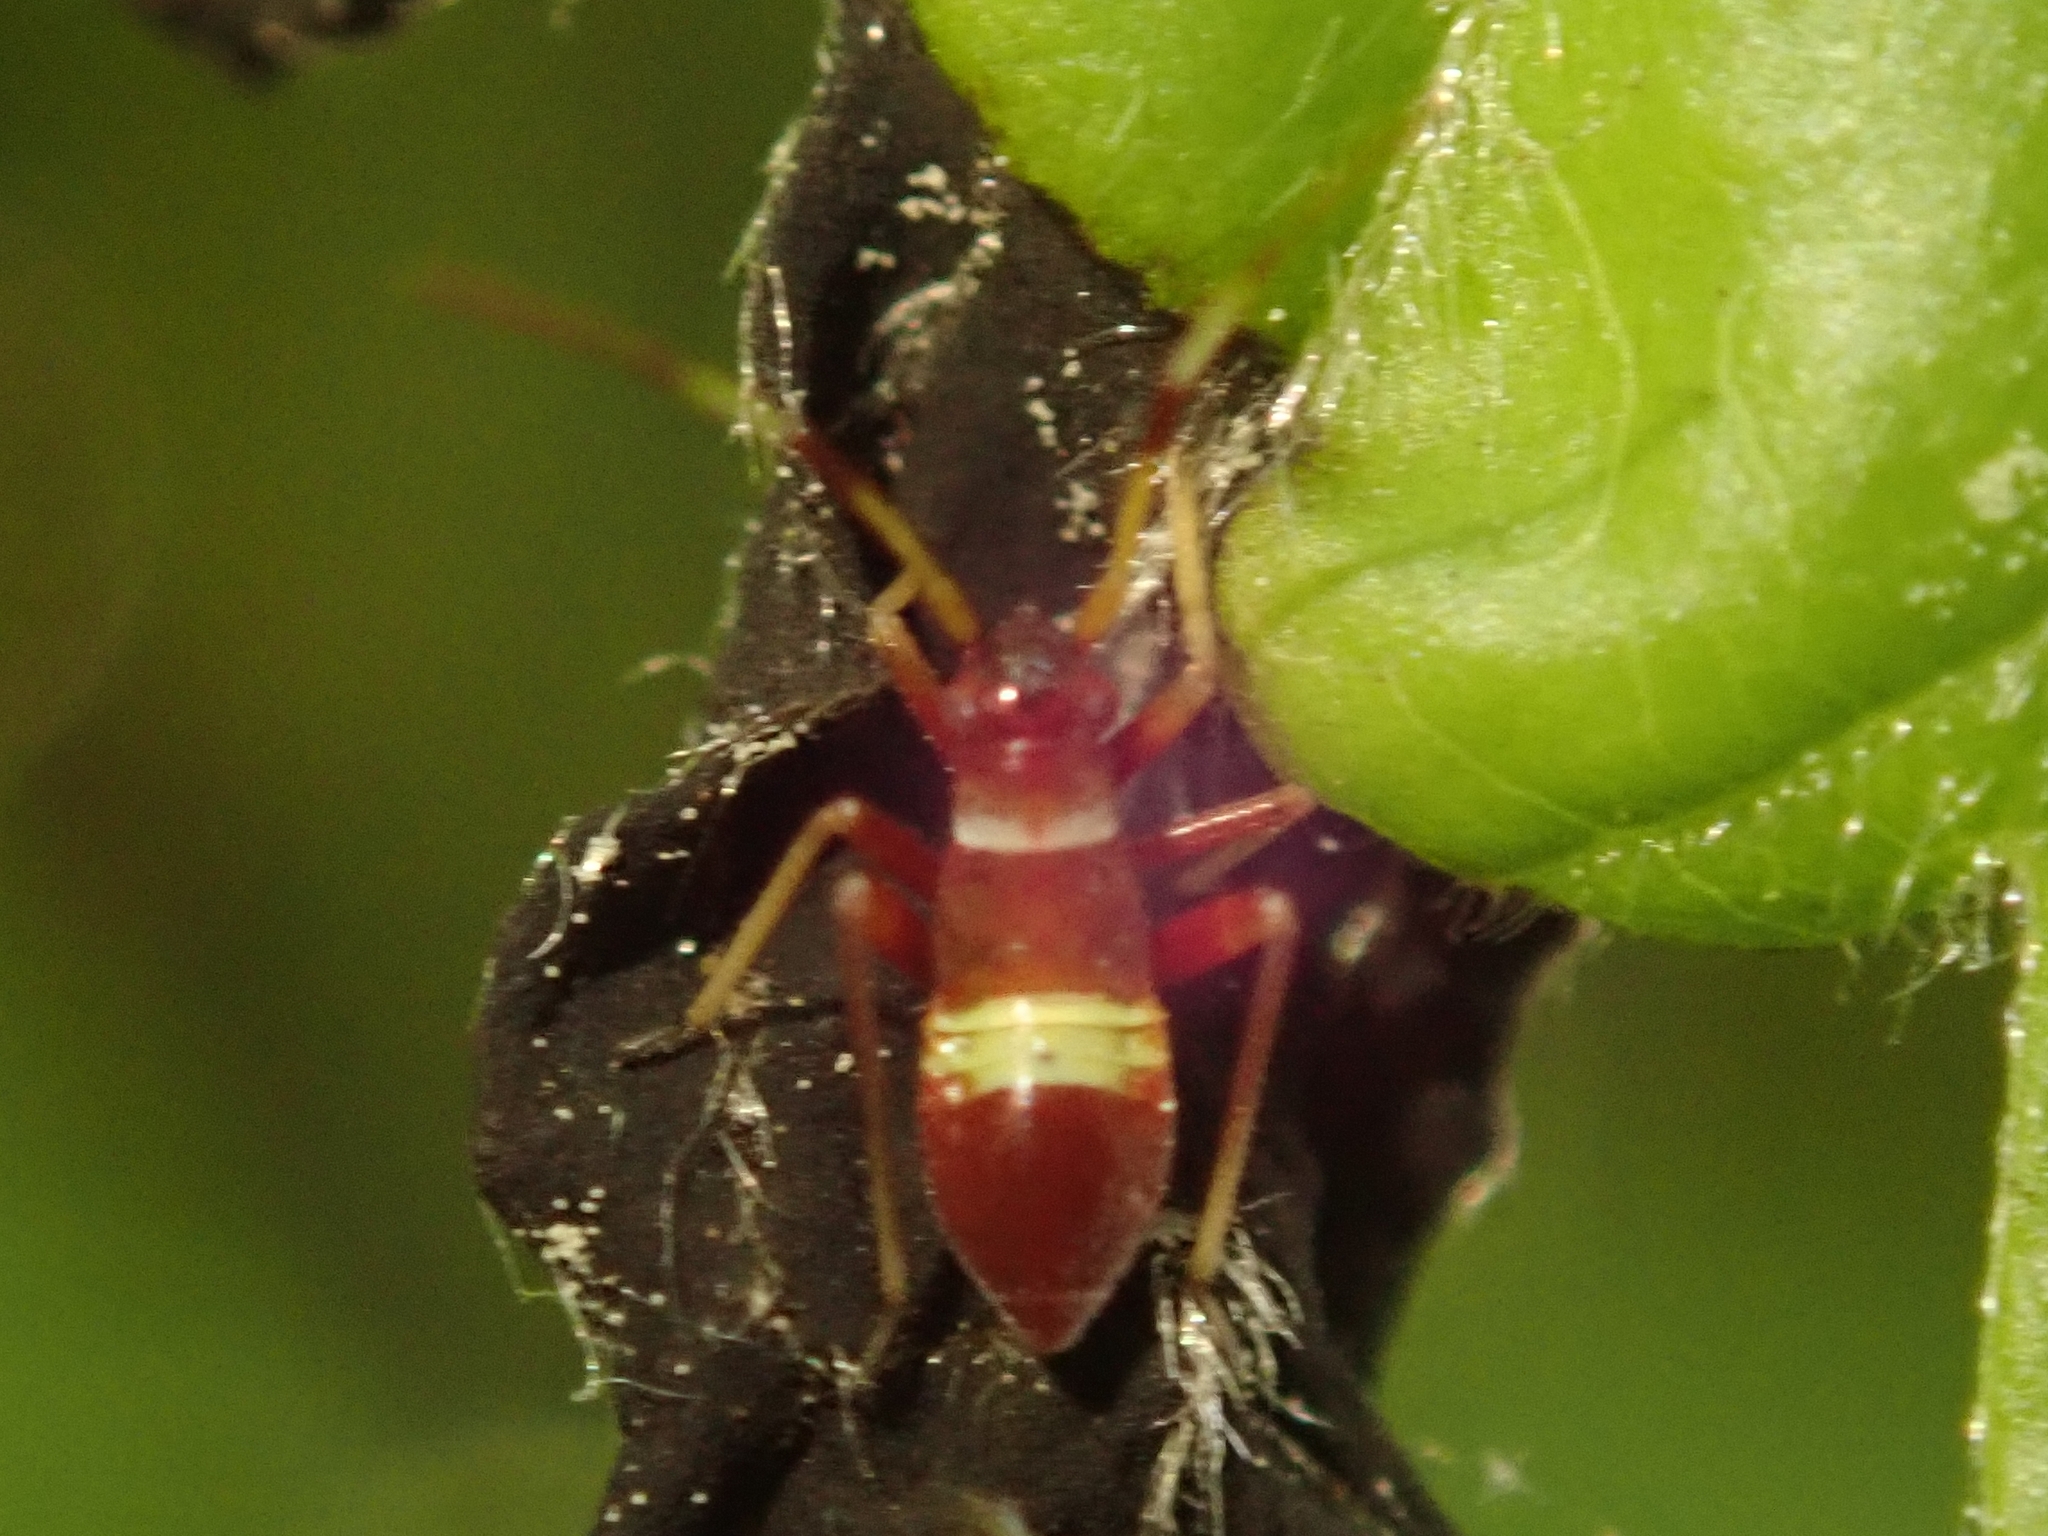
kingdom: Animalia
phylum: Arthropoda
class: Insecta
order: Hemiptera
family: Miridae
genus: Closterotomus
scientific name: Closterotomus biclavatus
